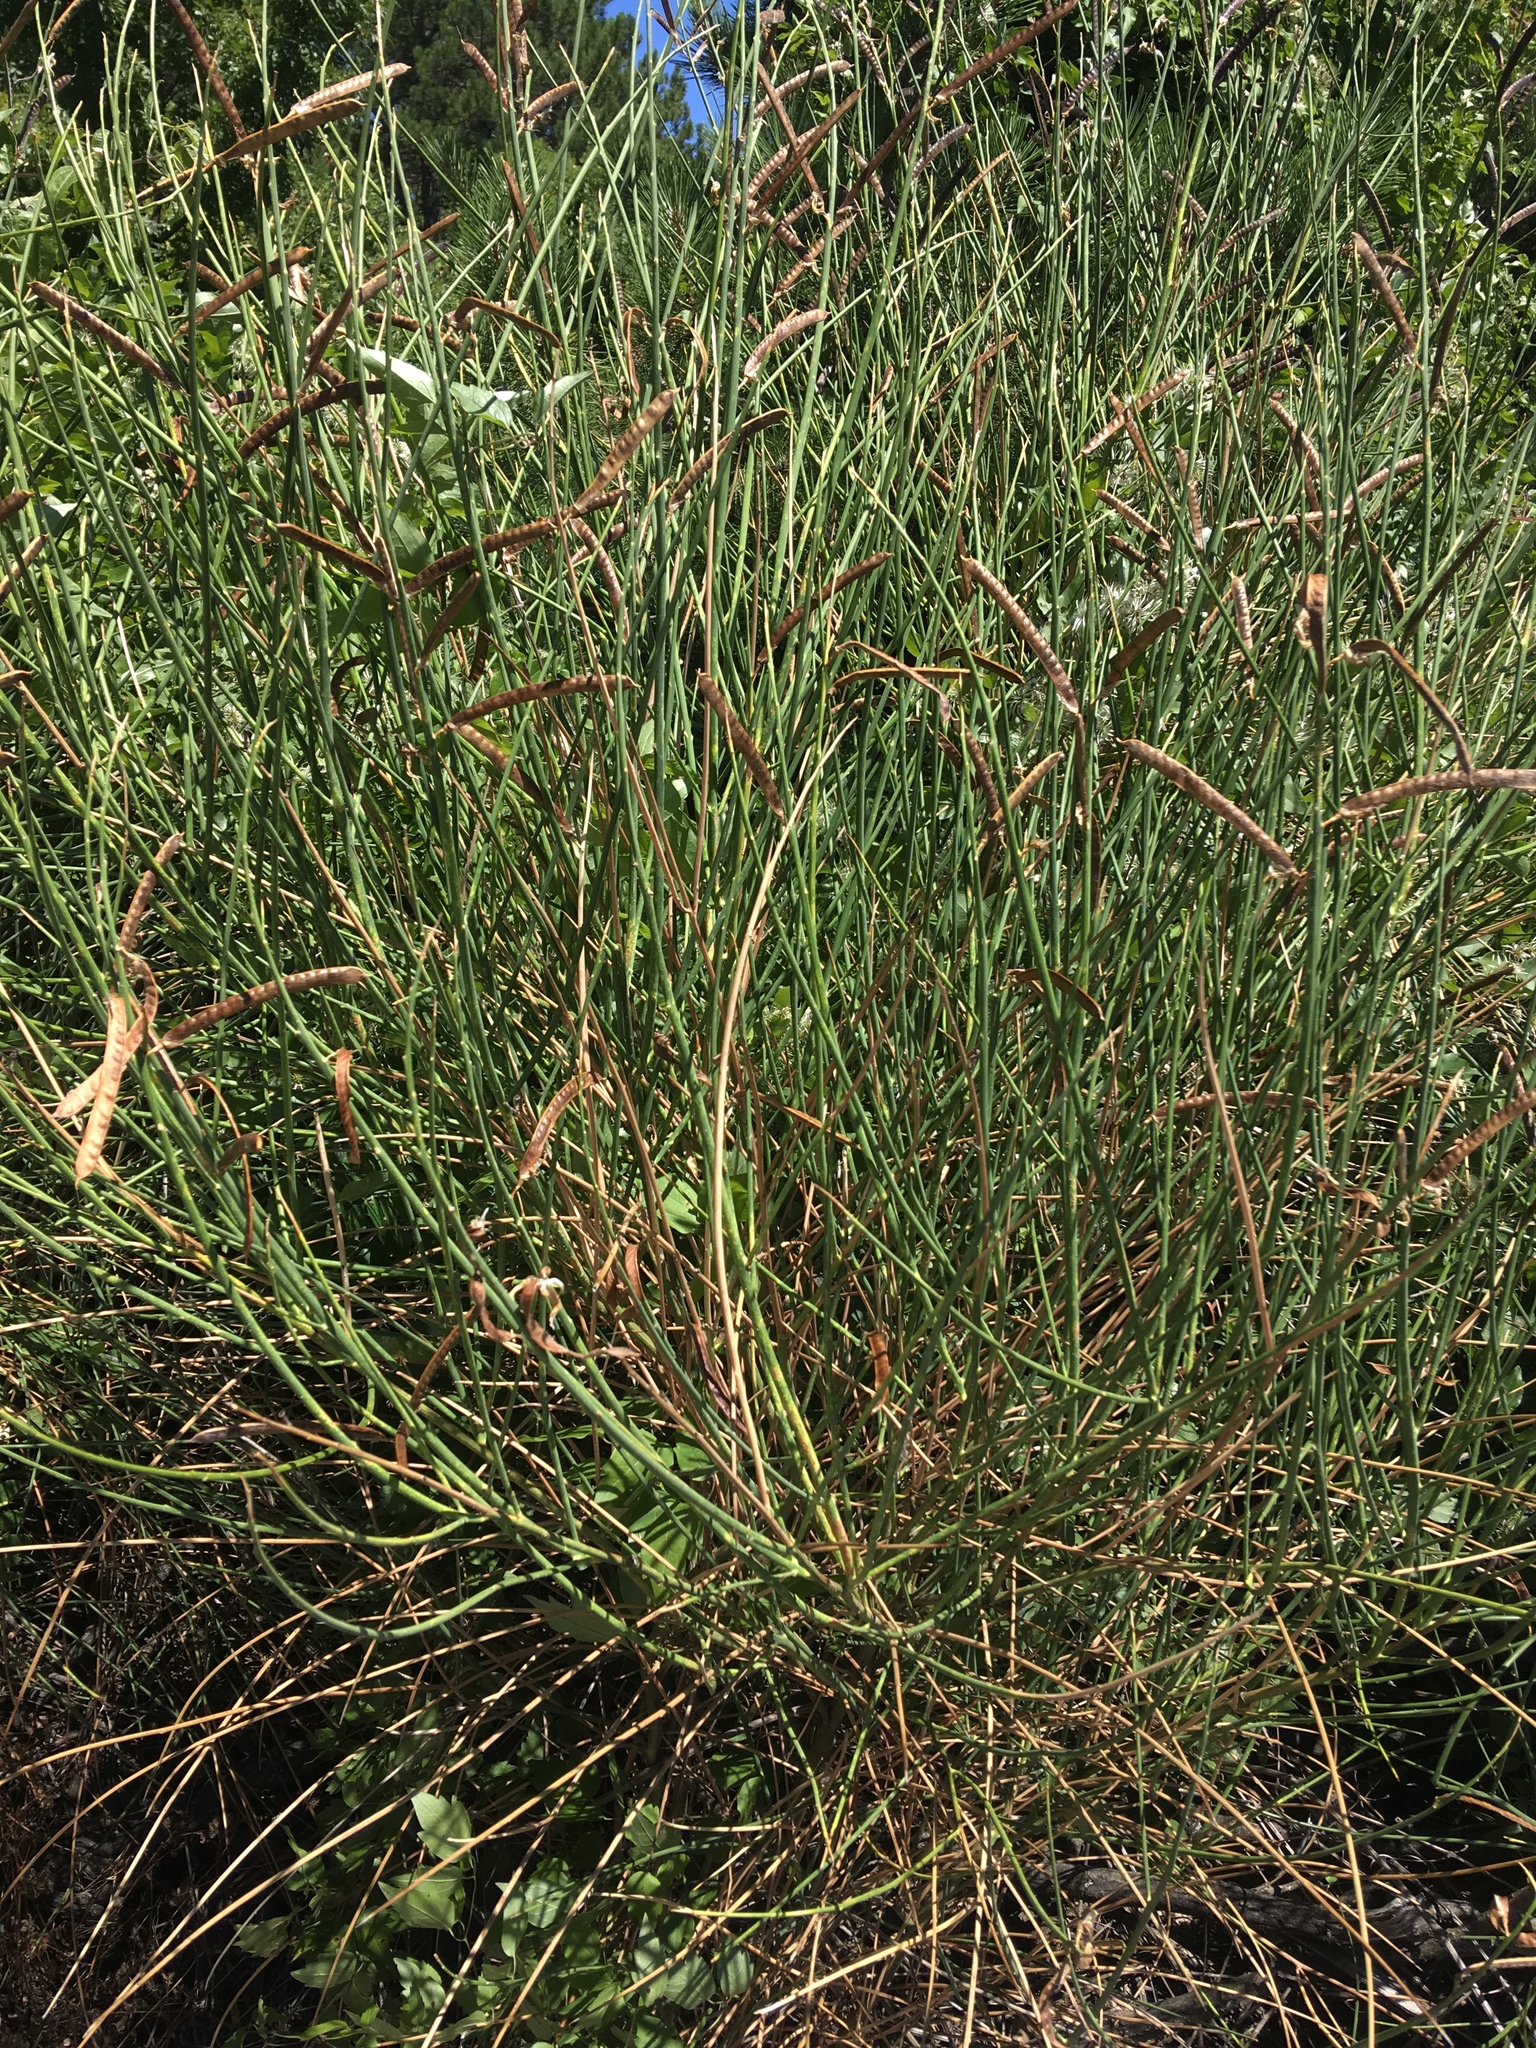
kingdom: Plantae
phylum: Tracheophyta
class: Magnoliopsida
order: Fabales
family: Fabaceae
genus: Spartium
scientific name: Spartium junceum
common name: Spanish broom
